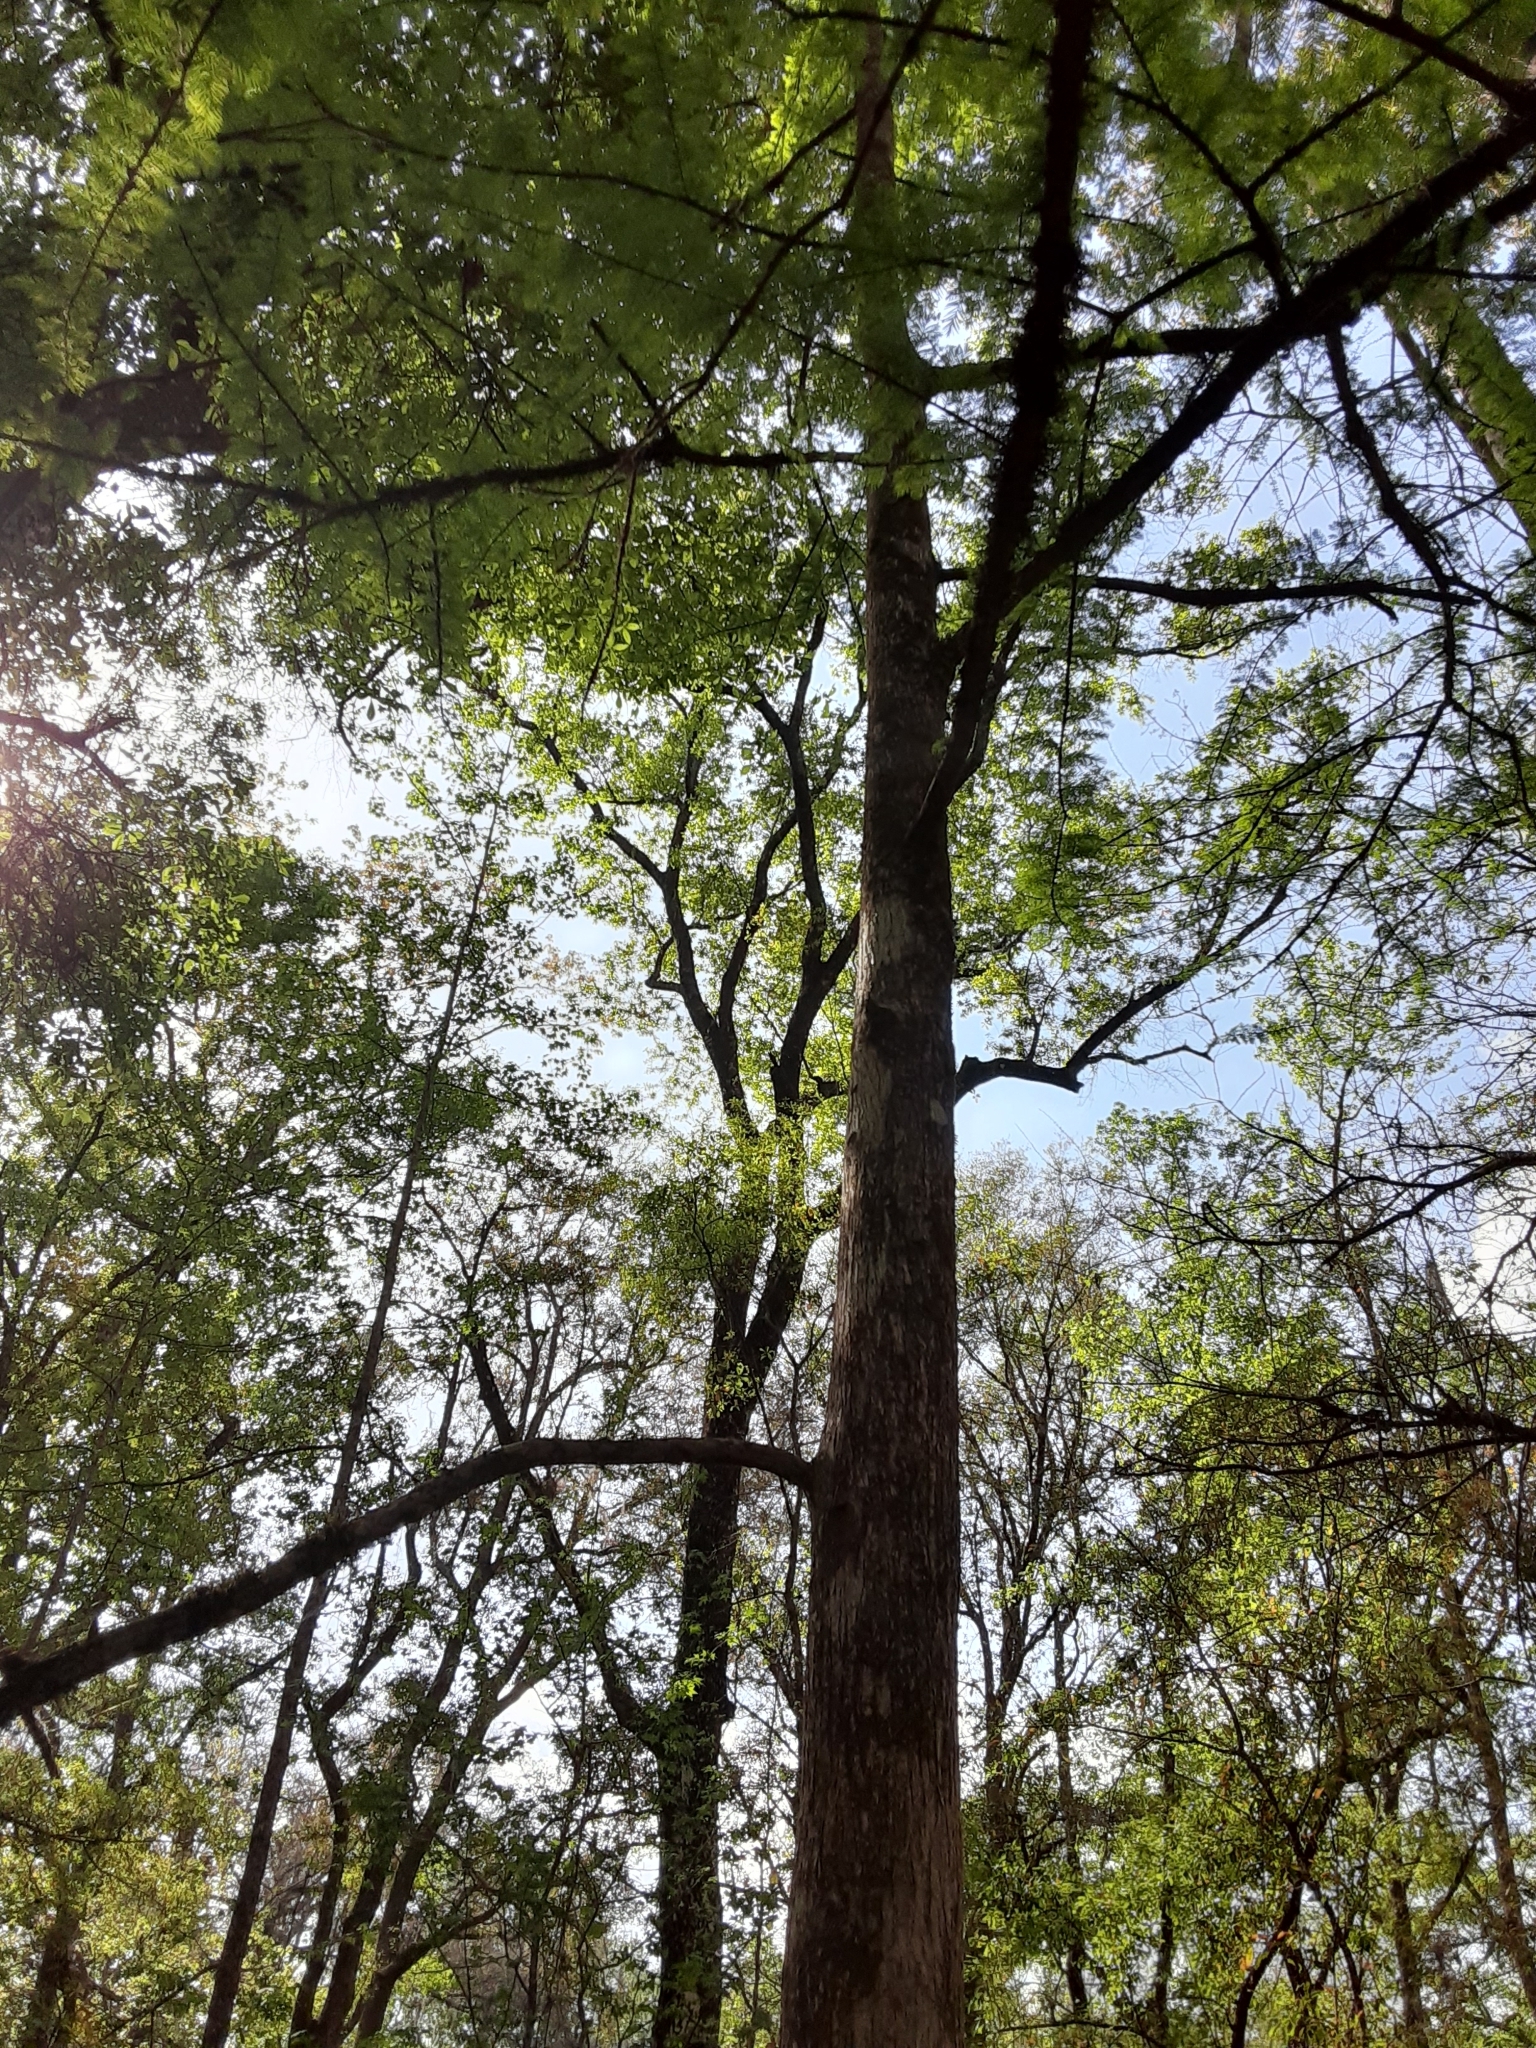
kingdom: Plantae
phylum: Tracheophyta
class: Pinopsida
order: Pinales
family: Cupressaceae
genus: Taxodium
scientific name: Taxodium distichum
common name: Bald cypress
